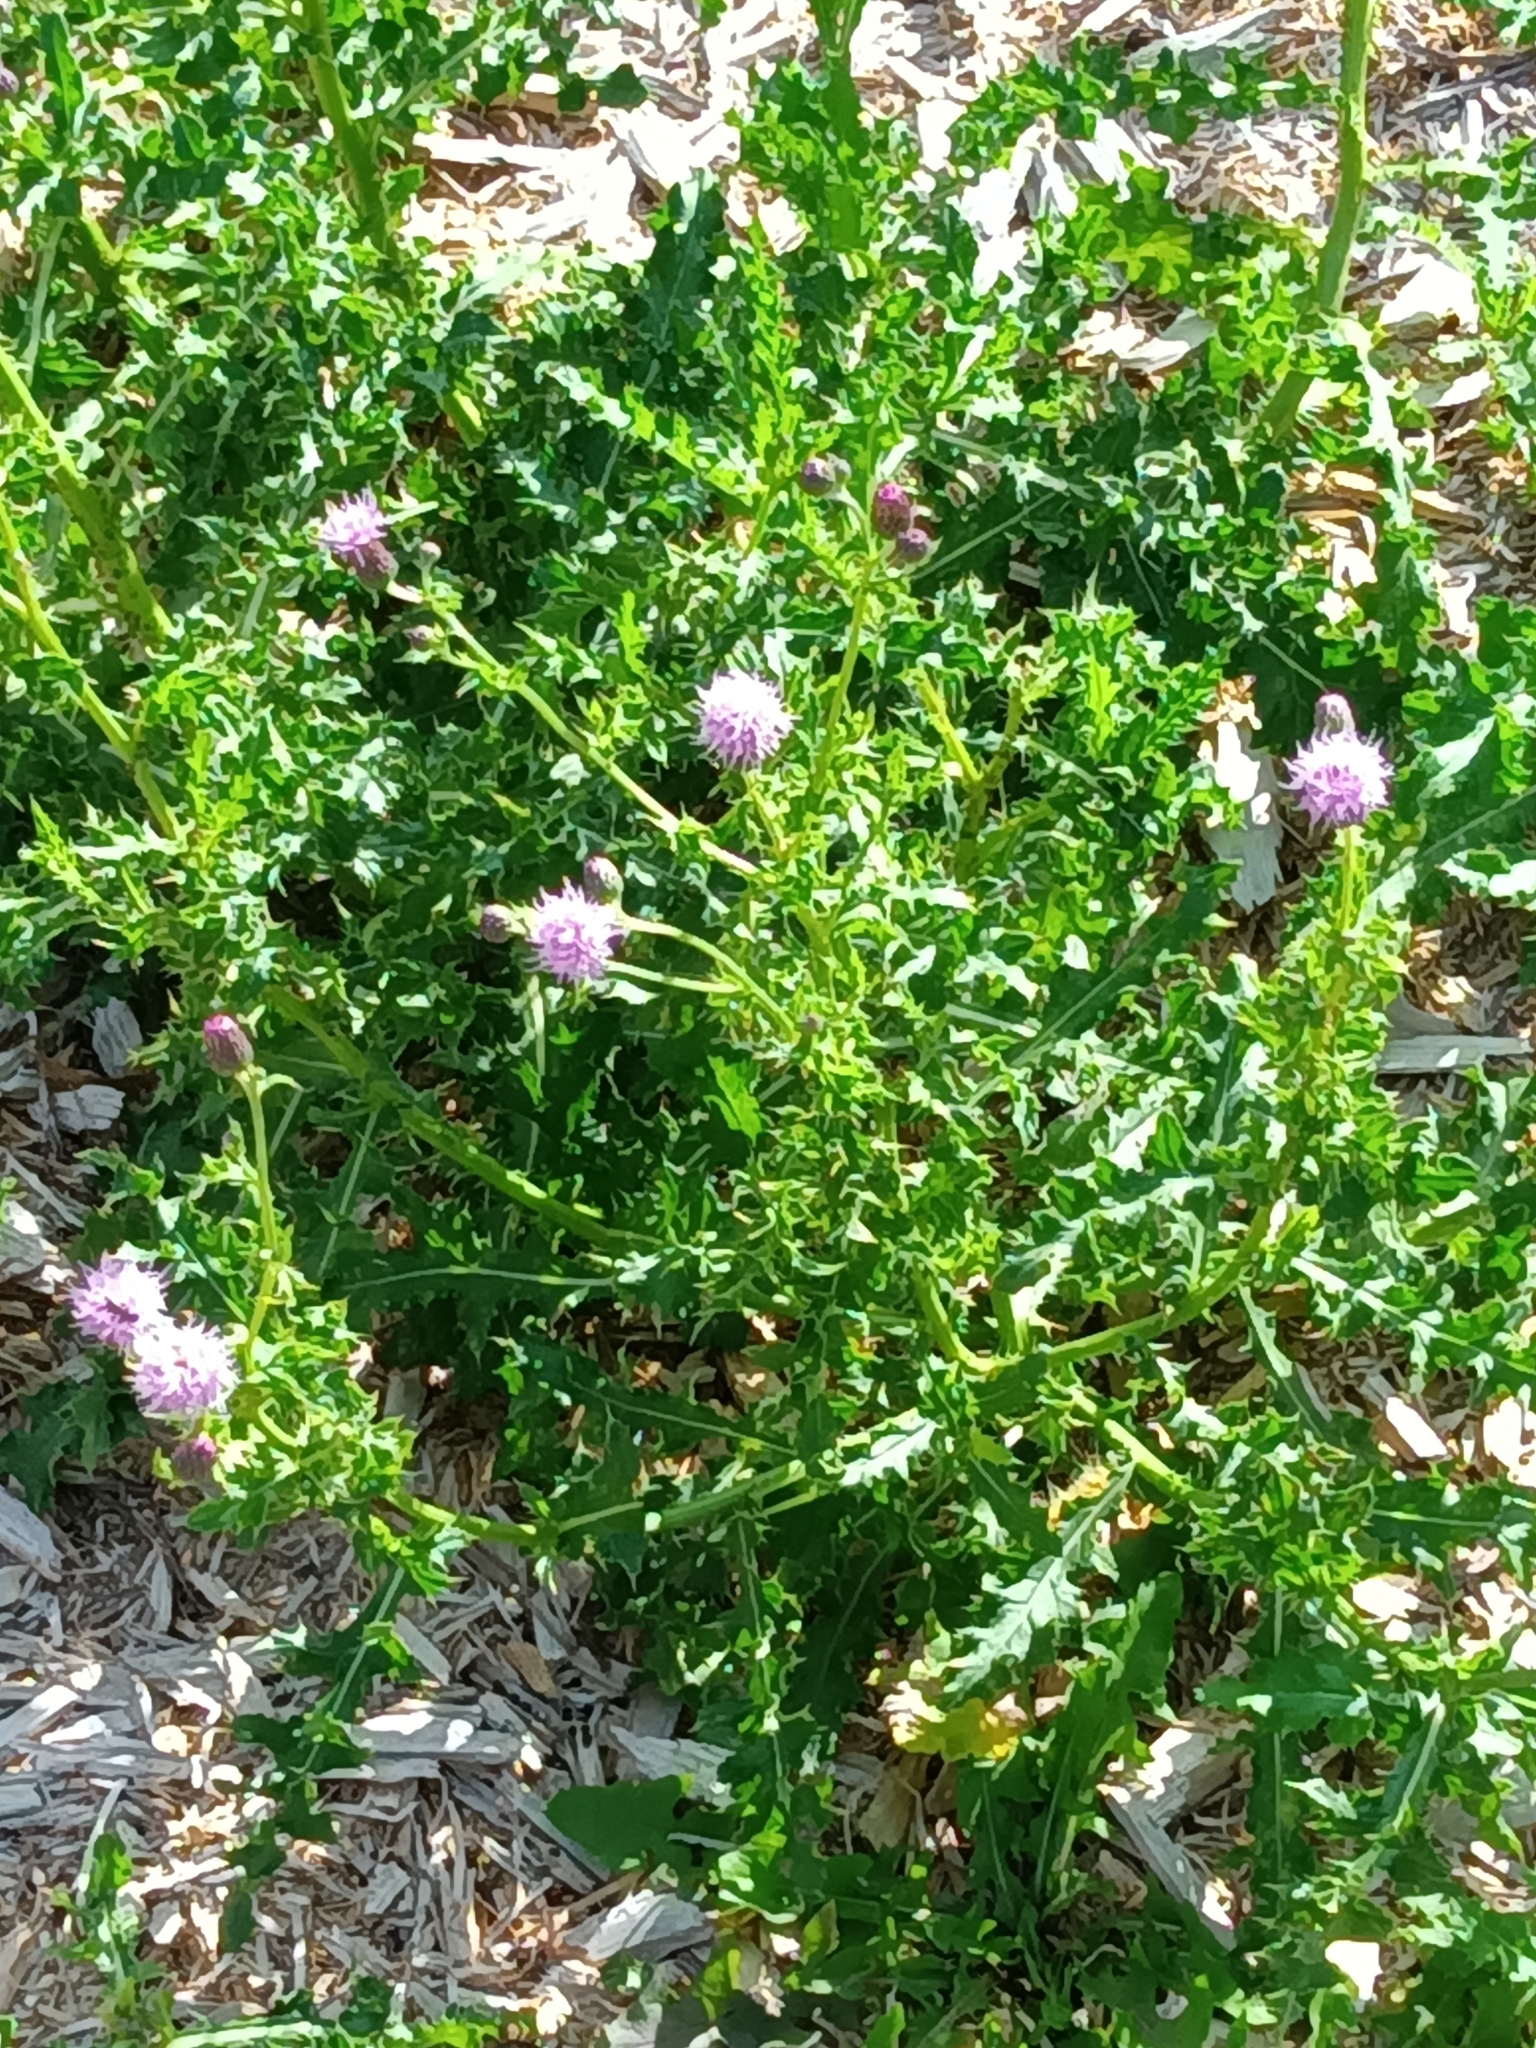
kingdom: Plantae
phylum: Tracheophyta
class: Magnoliopsida
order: Asterales
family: Asteraceae
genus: Cirsium
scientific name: Cirsium arvense
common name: Creeping thistle
